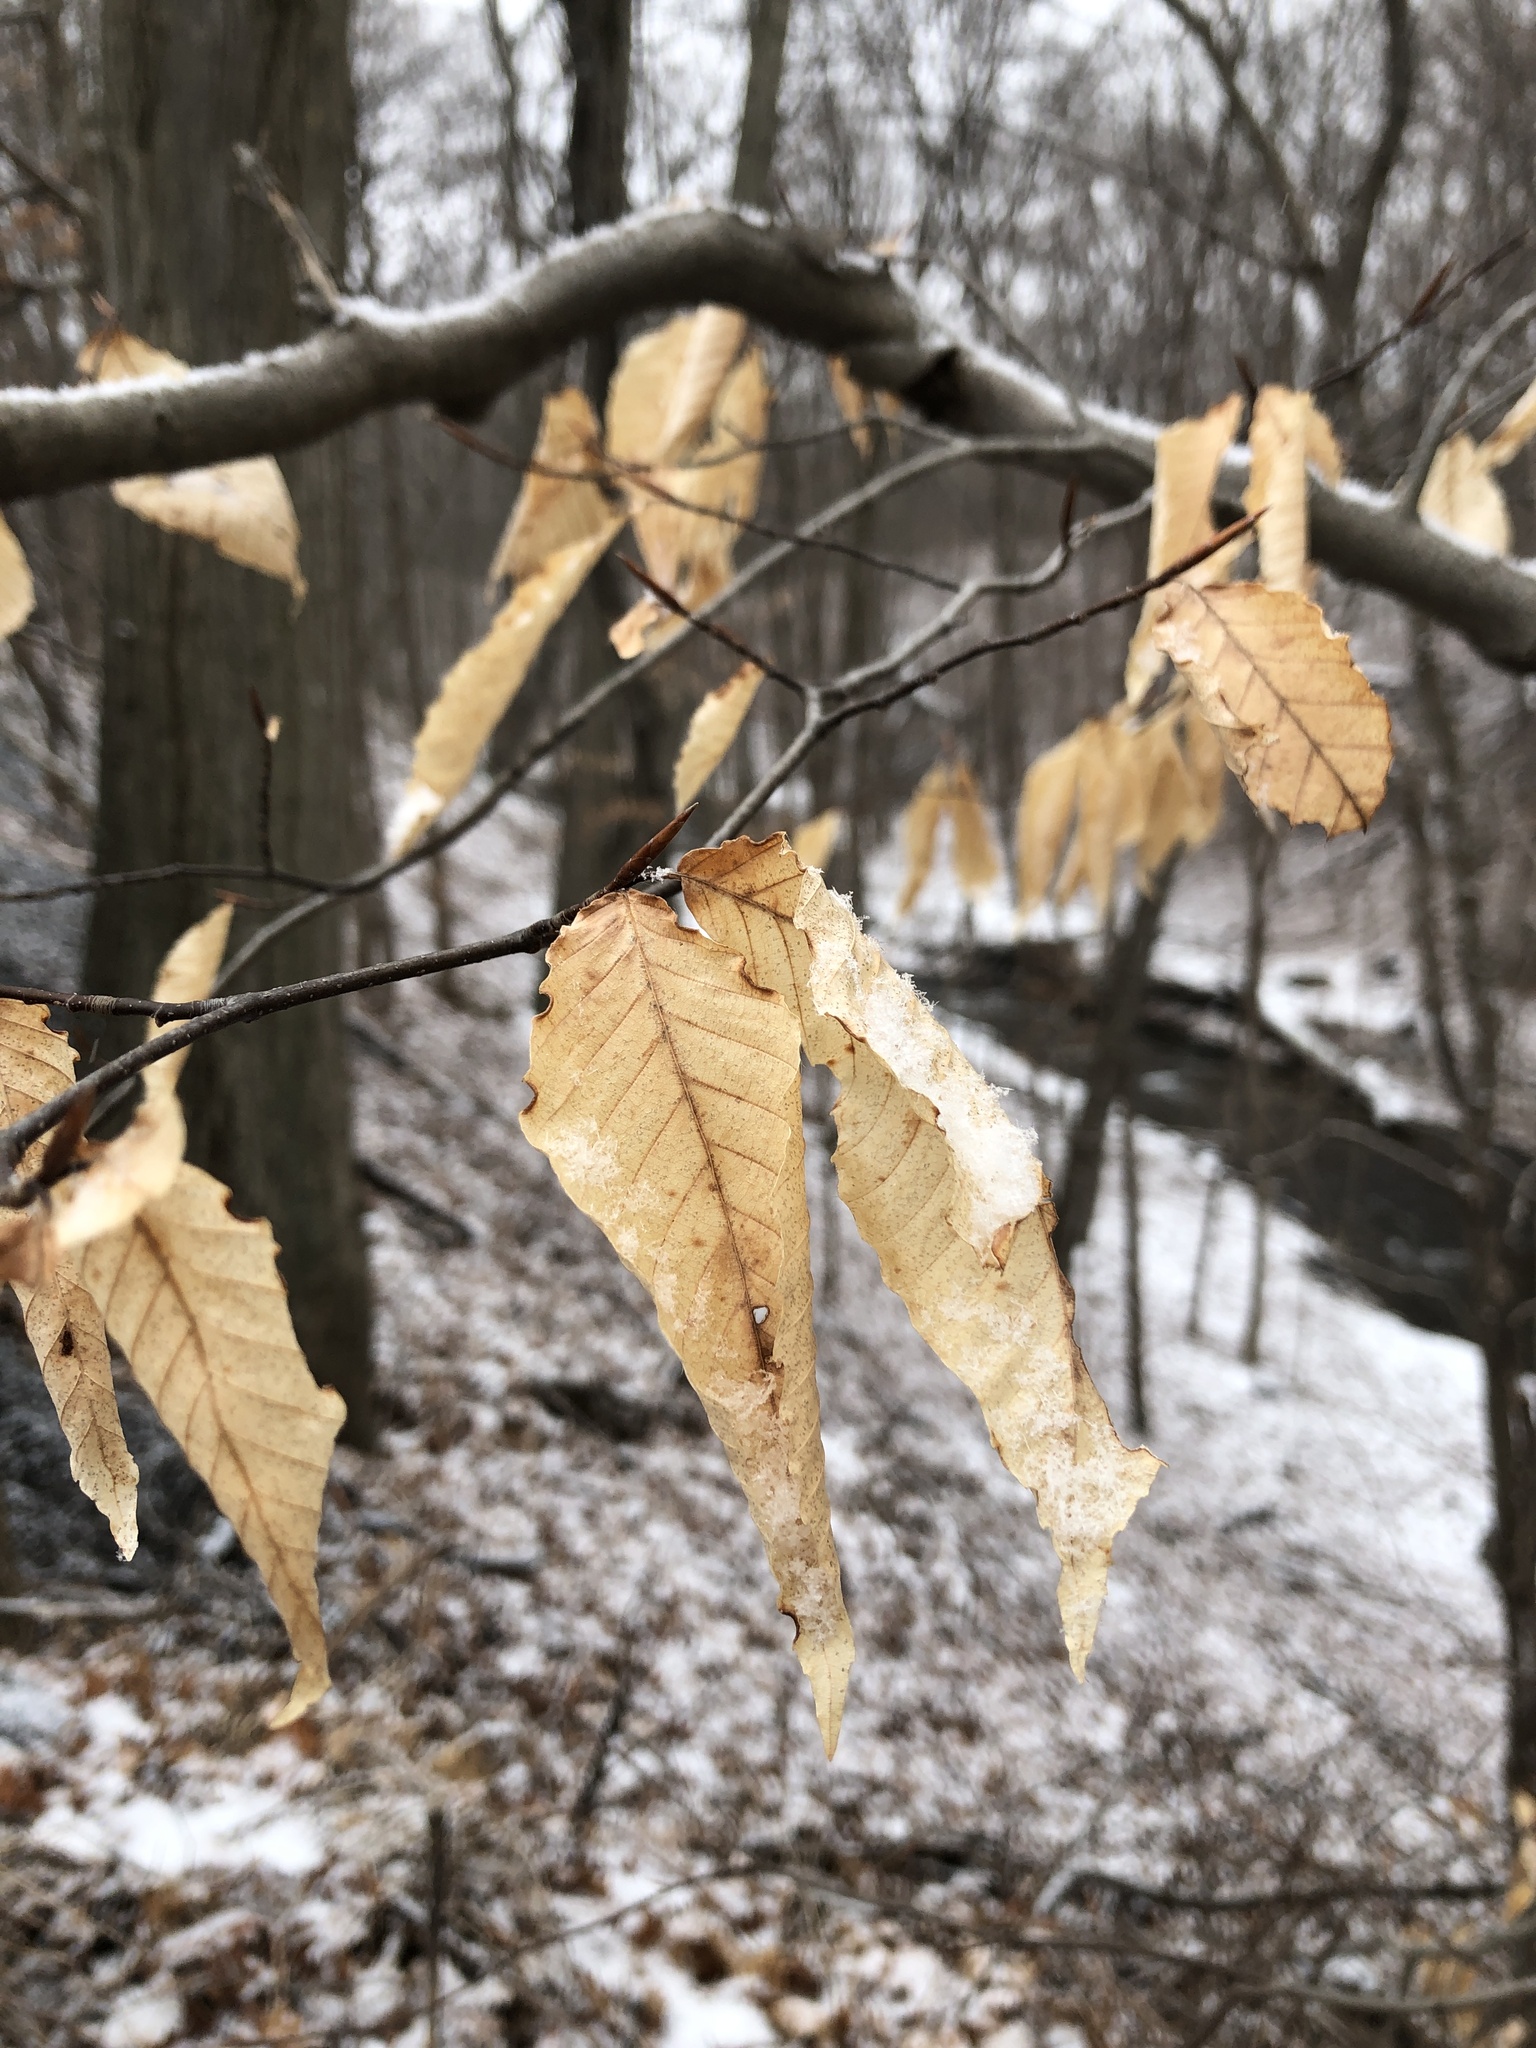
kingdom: Plantae
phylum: Tracheophyta
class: Magnoliopsida
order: Fagales
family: Fagaceae
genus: Fagus
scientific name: Fagus grandifolia
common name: American beech
